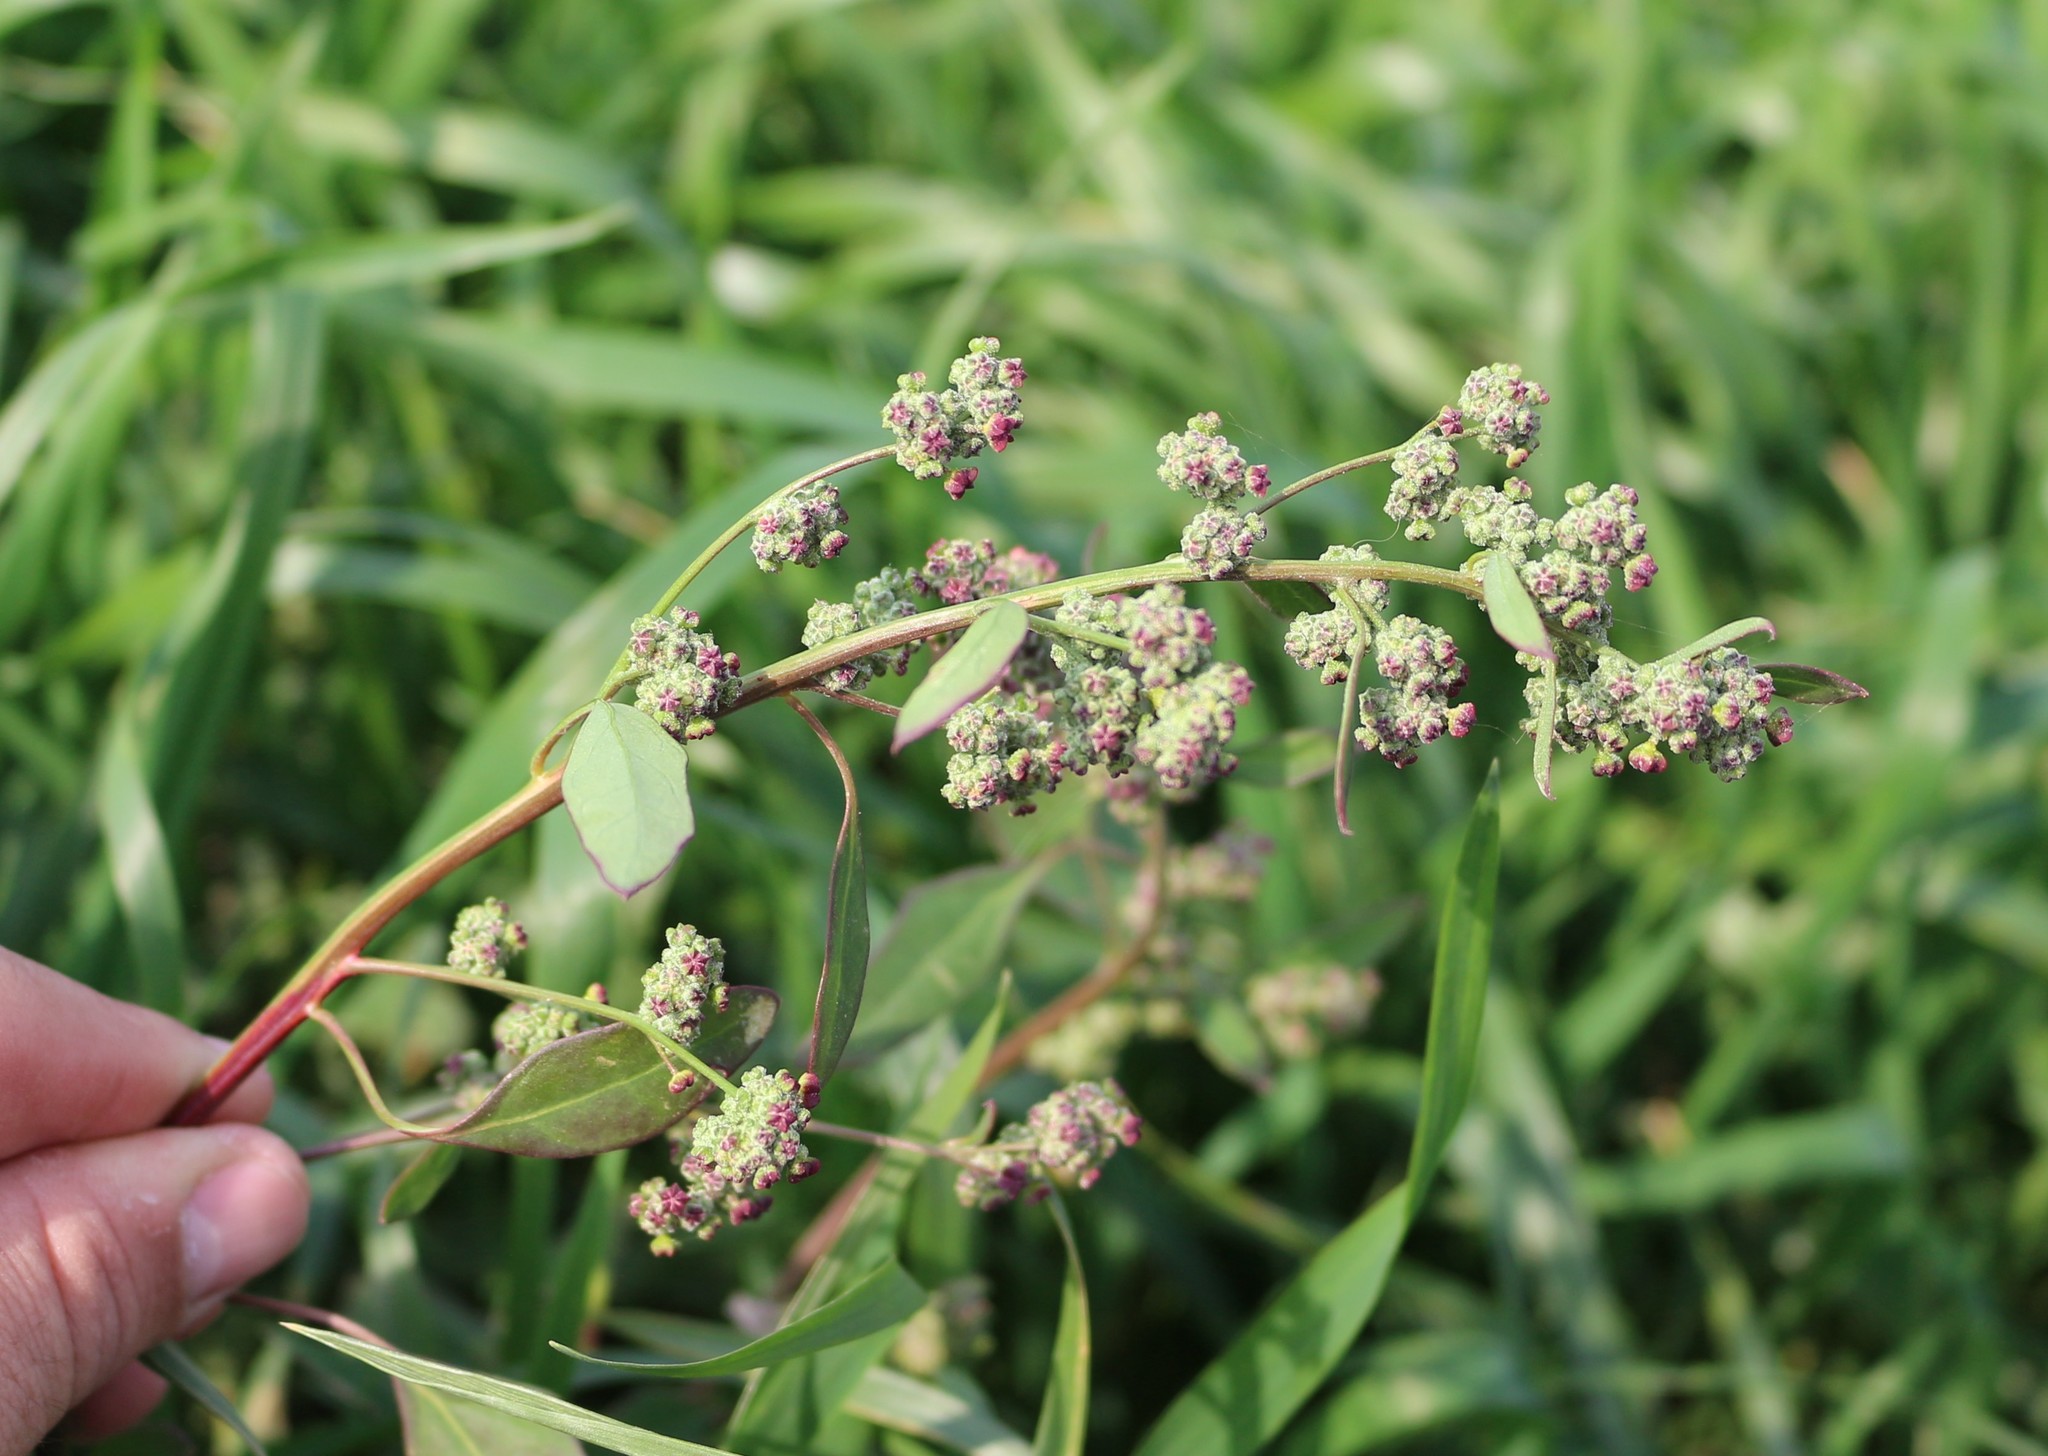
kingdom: Plantae
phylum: Tracheophyta
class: Magnoliopsida
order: Caryophyllales
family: Amaranthaceae
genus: Chenopodium
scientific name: Chenopodium album
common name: Fat-hen
